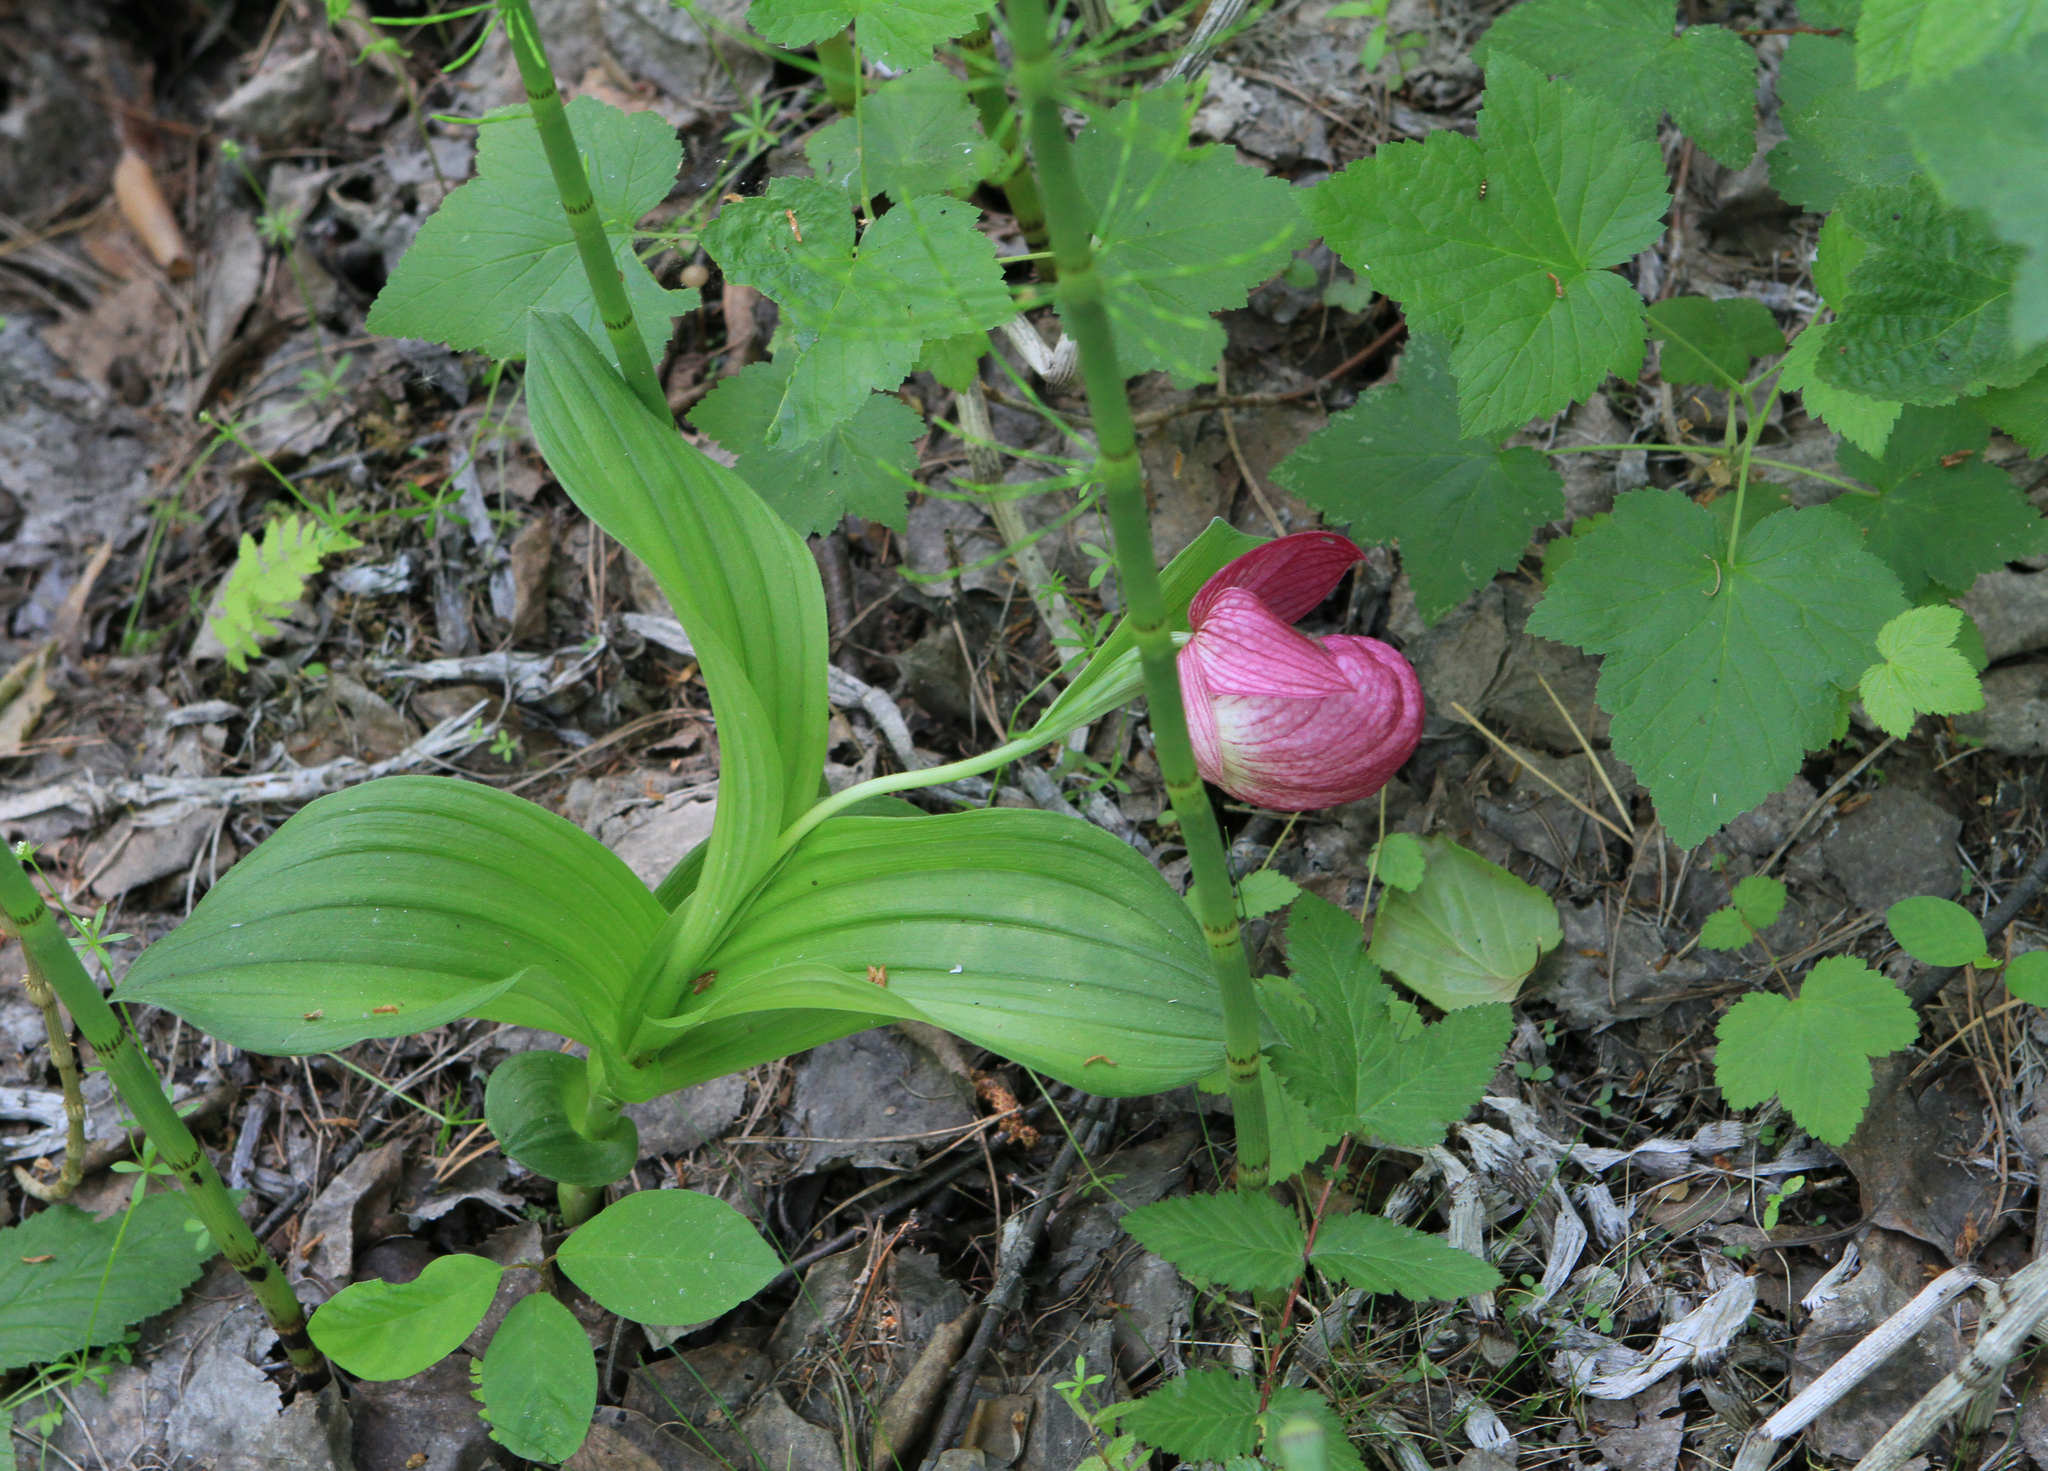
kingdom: Plantae
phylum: Tracheophyta
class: Liliopsida
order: Asparagales
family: Orchidaceae
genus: Cypripedium
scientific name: Cypripedium macranthos
